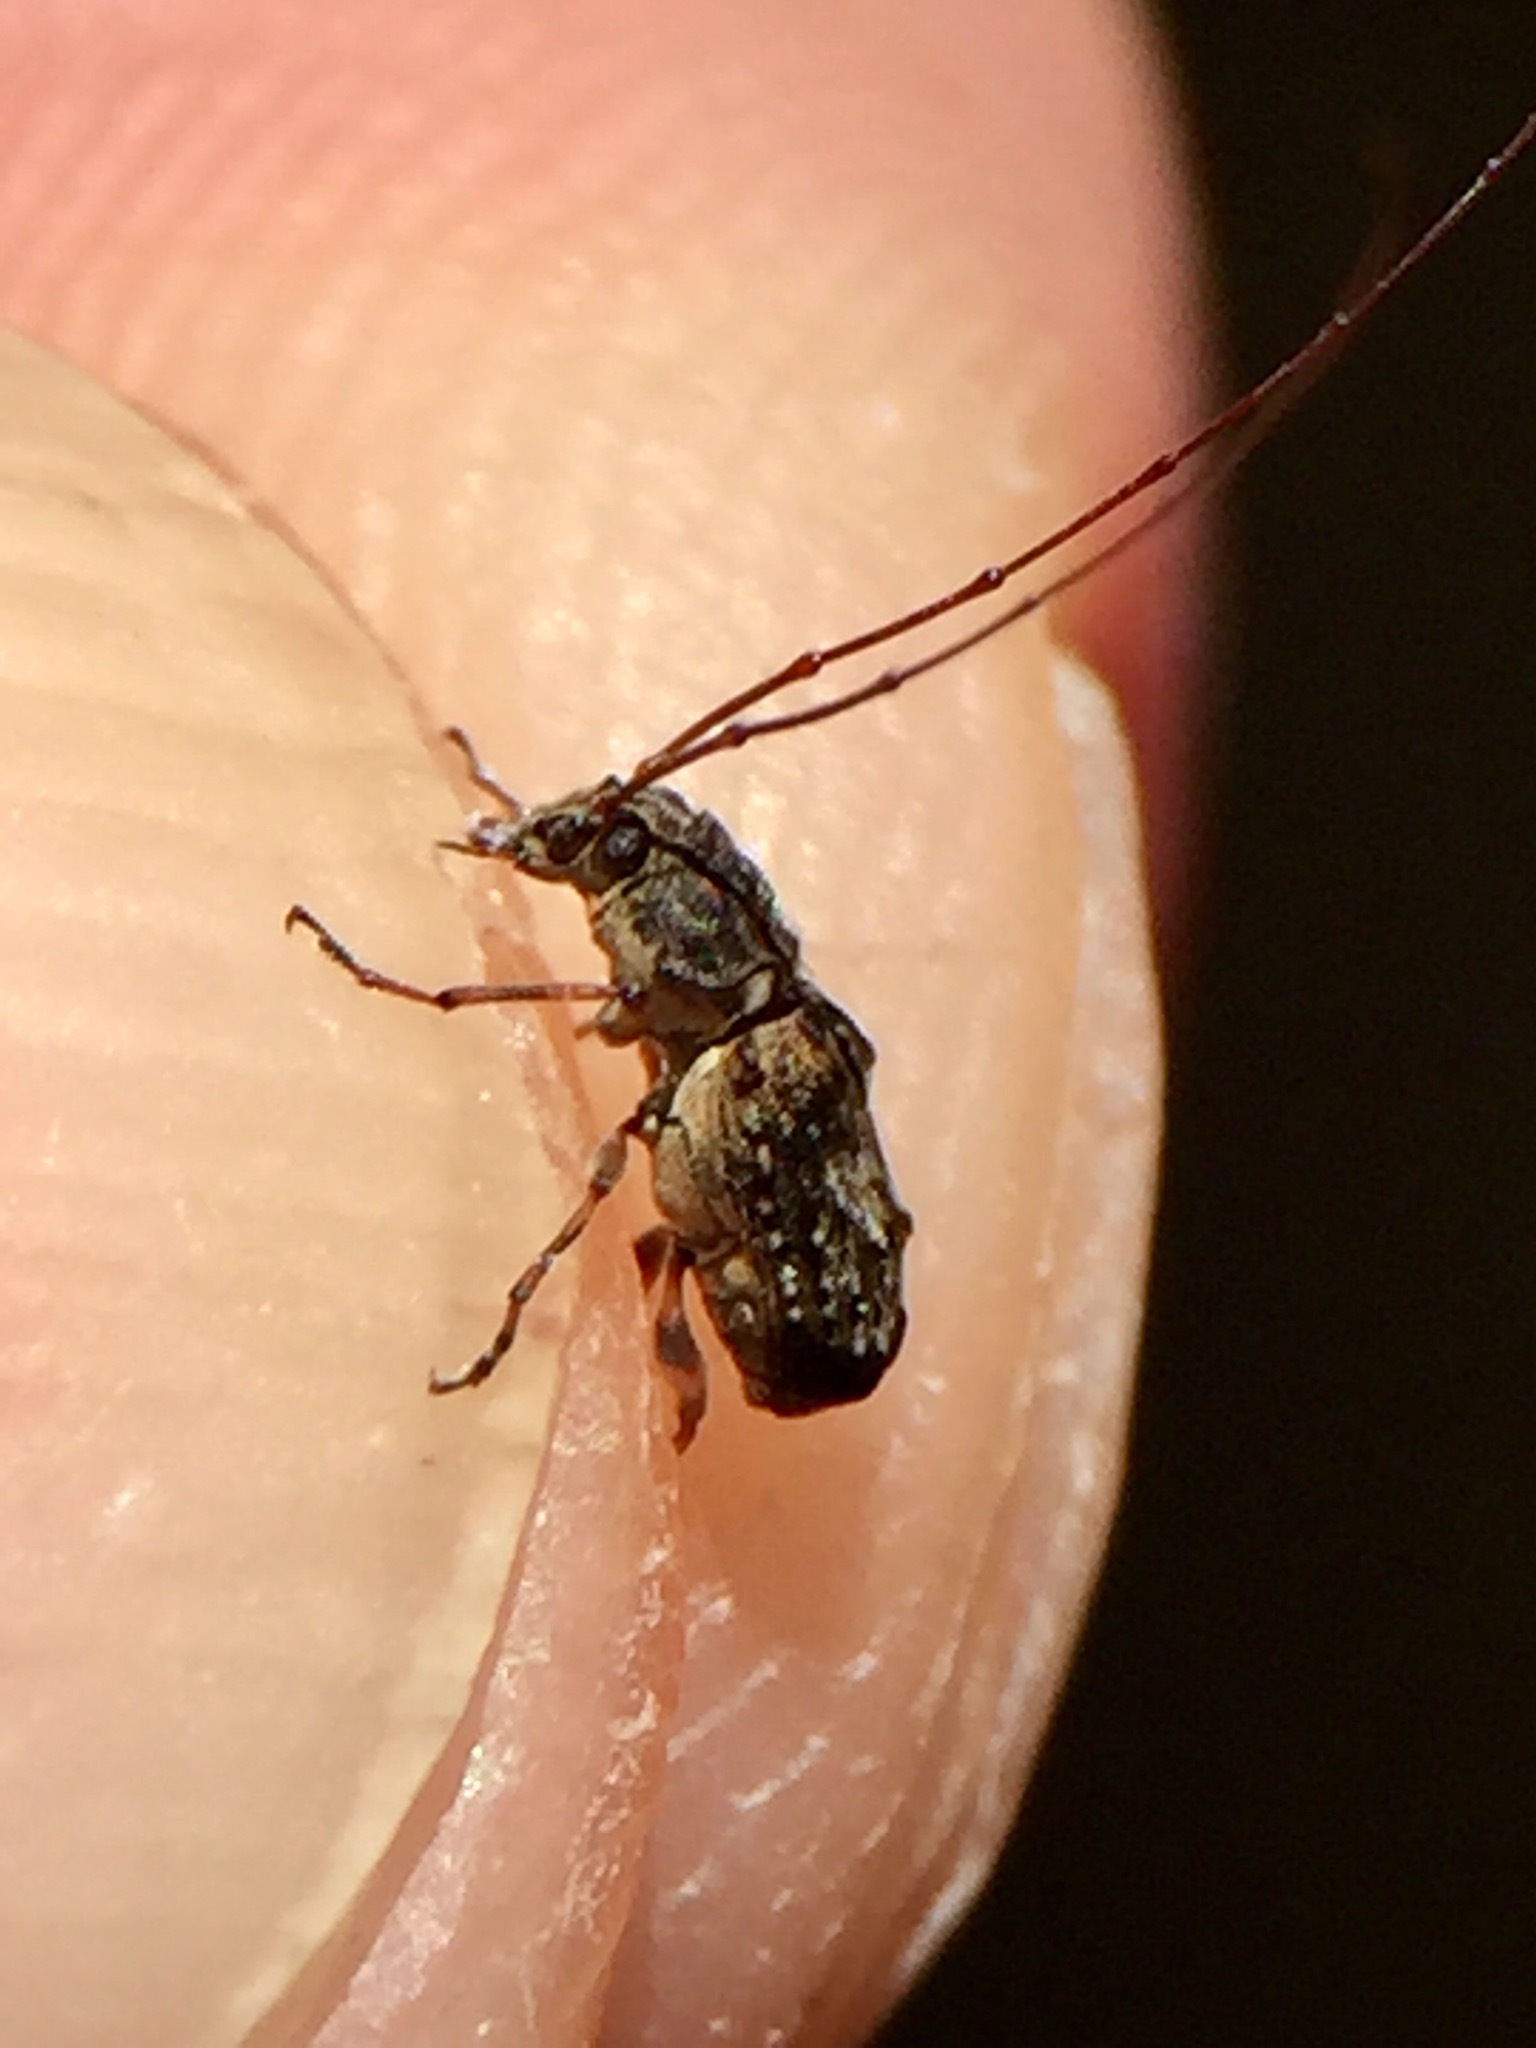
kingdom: Animalia
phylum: Arthropoda
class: Insecta
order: Coleoptera
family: Anthribidae
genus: Phymatus
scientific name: Phymatus
